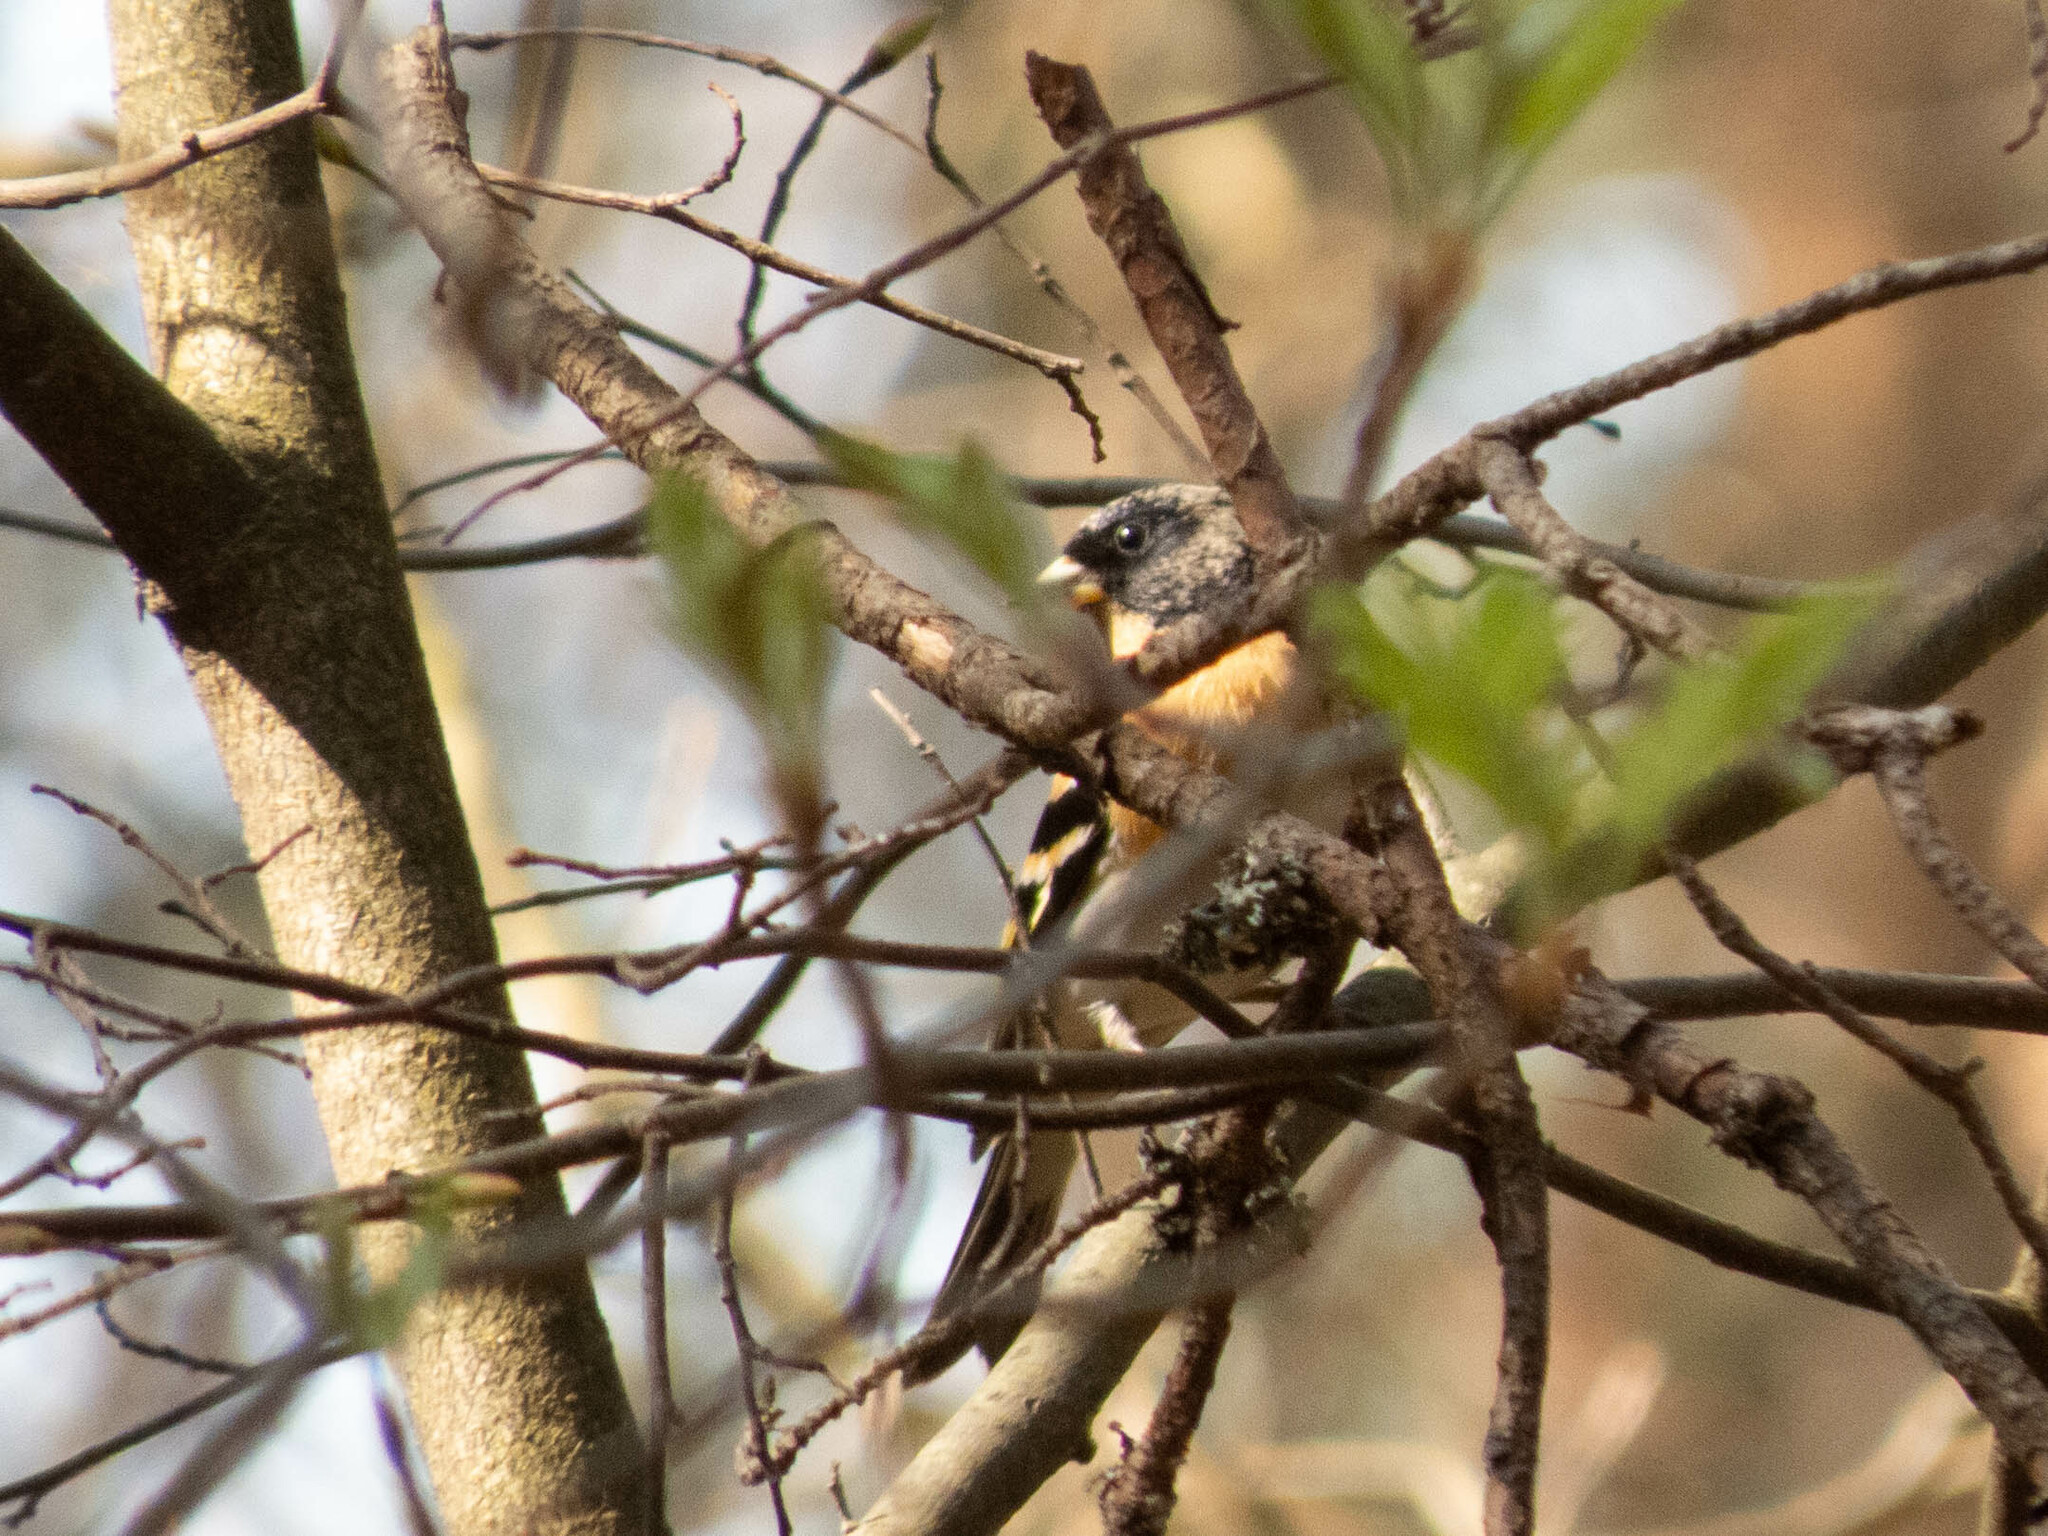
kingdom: Animalia
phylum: Chordata
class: Aves
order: Passeriformes
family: Fringillidae
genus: Fringilla
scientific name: Fringilla montifringilla
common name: Brambling
